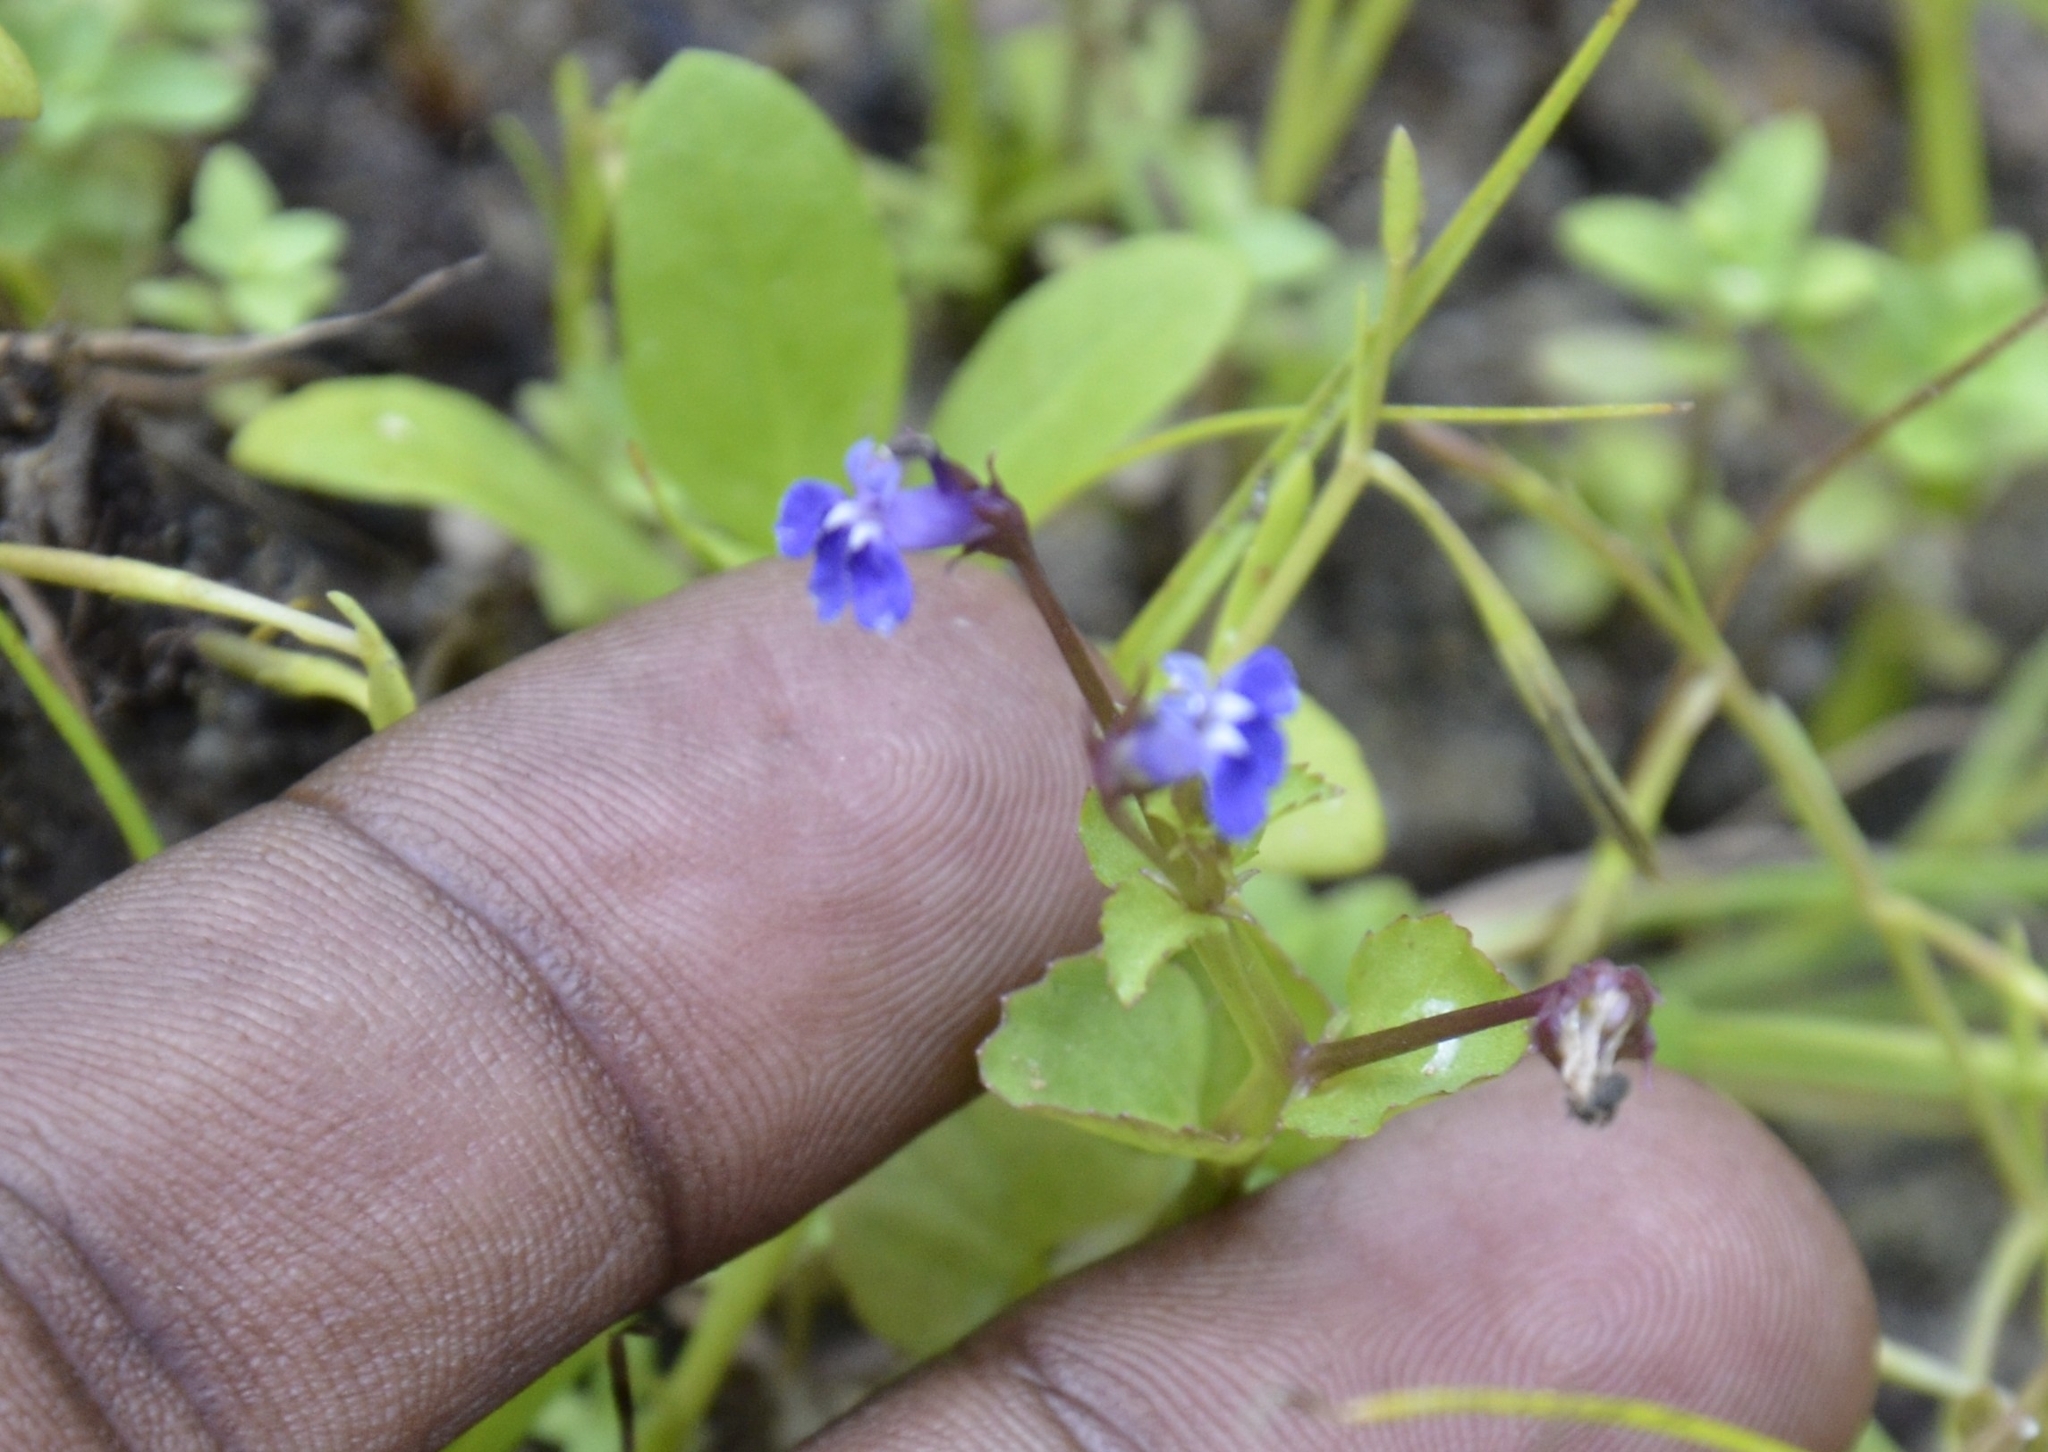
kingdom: Plantae
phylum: Tracheophyta
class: Magnoliopsida
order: Asterales
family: Campanulaceae
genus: Lobelia
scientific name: Lobelia alsinoides
